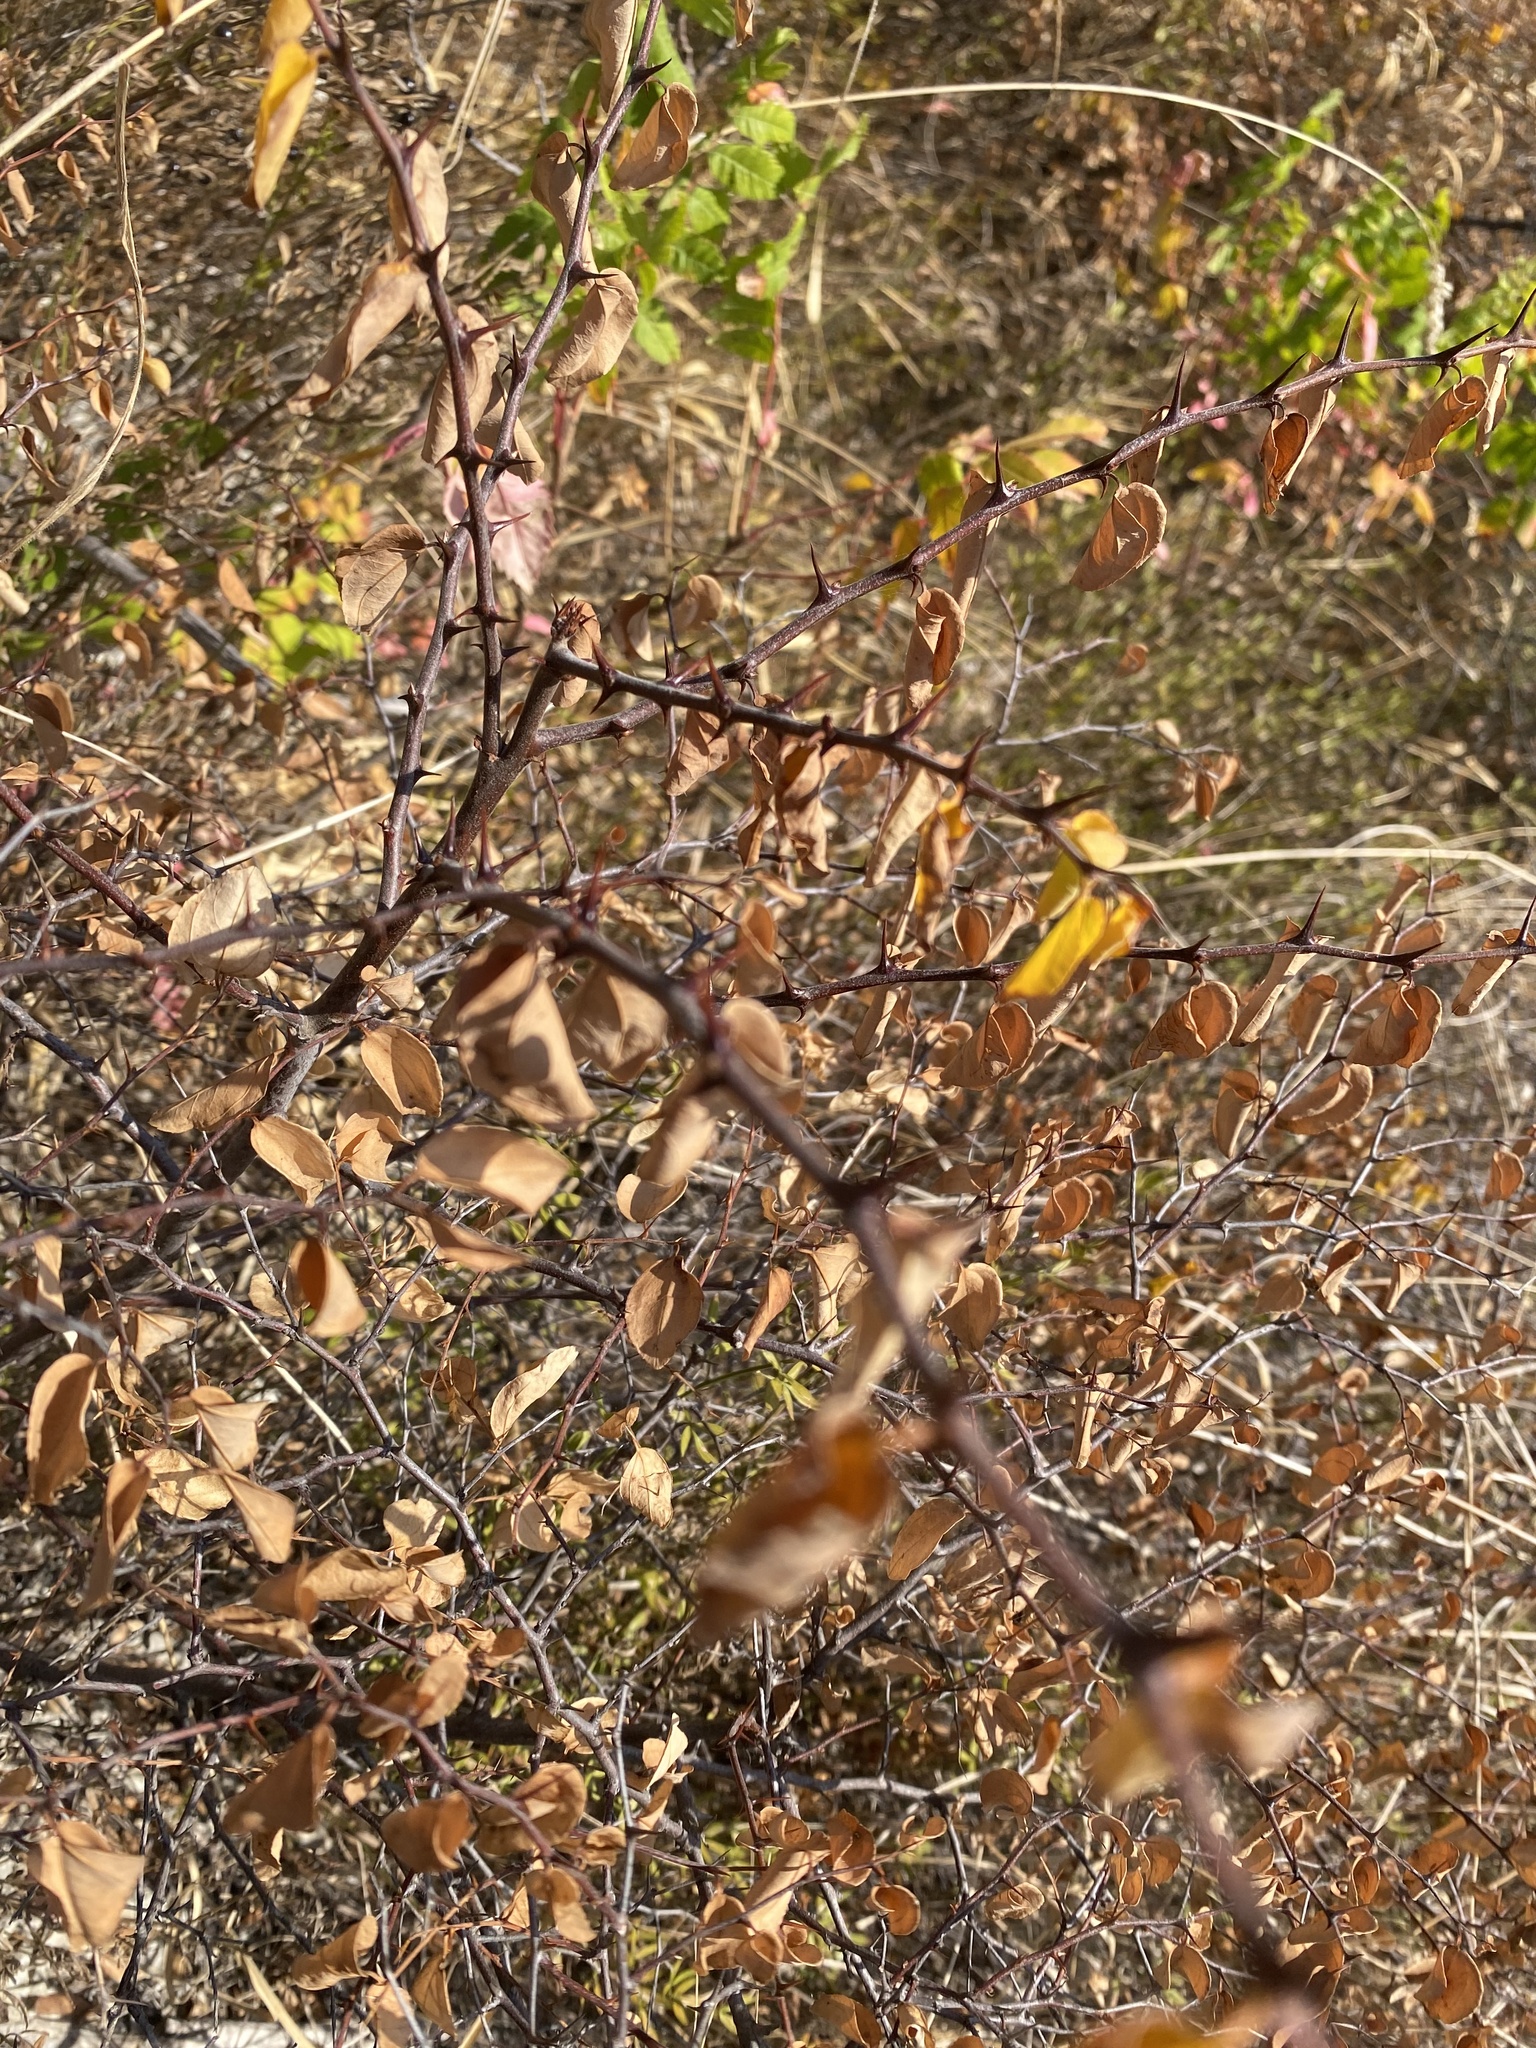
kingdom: Plantae
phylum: Tracheophyta
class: Magnoliopsida
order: Rosales
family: Rhamnaceae
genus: Paliurus
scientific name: Paliurus spina-christi
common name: Jeruselem thorn
